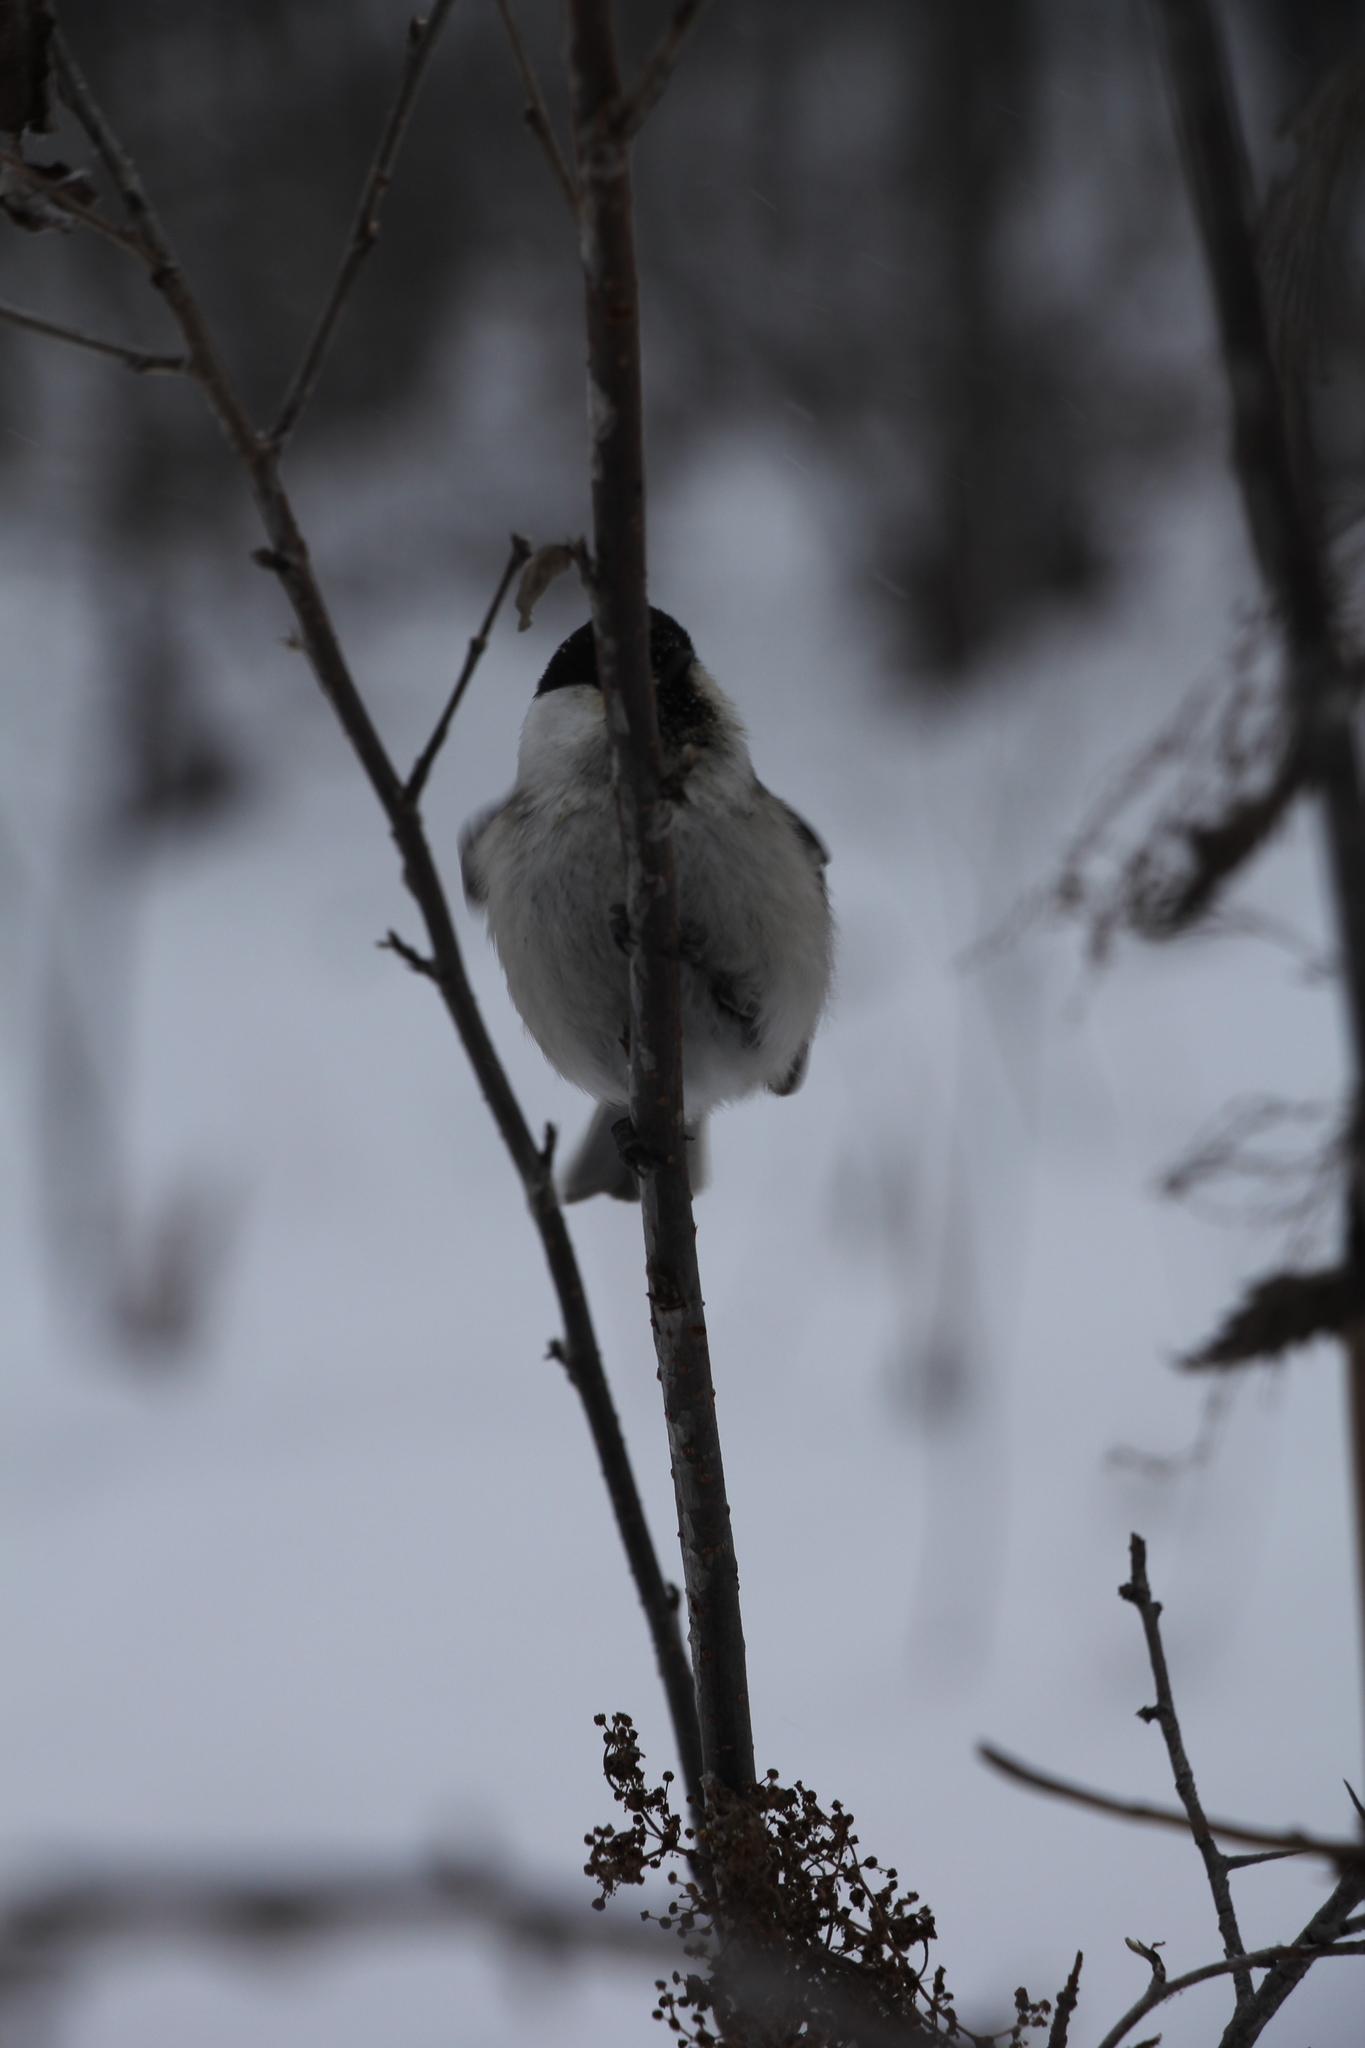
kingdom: Animalia
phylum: Chordata
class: Aves
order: Passeriformes
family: Paridae
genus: Poecile
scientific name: Poecile montanus
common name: Willow tit
